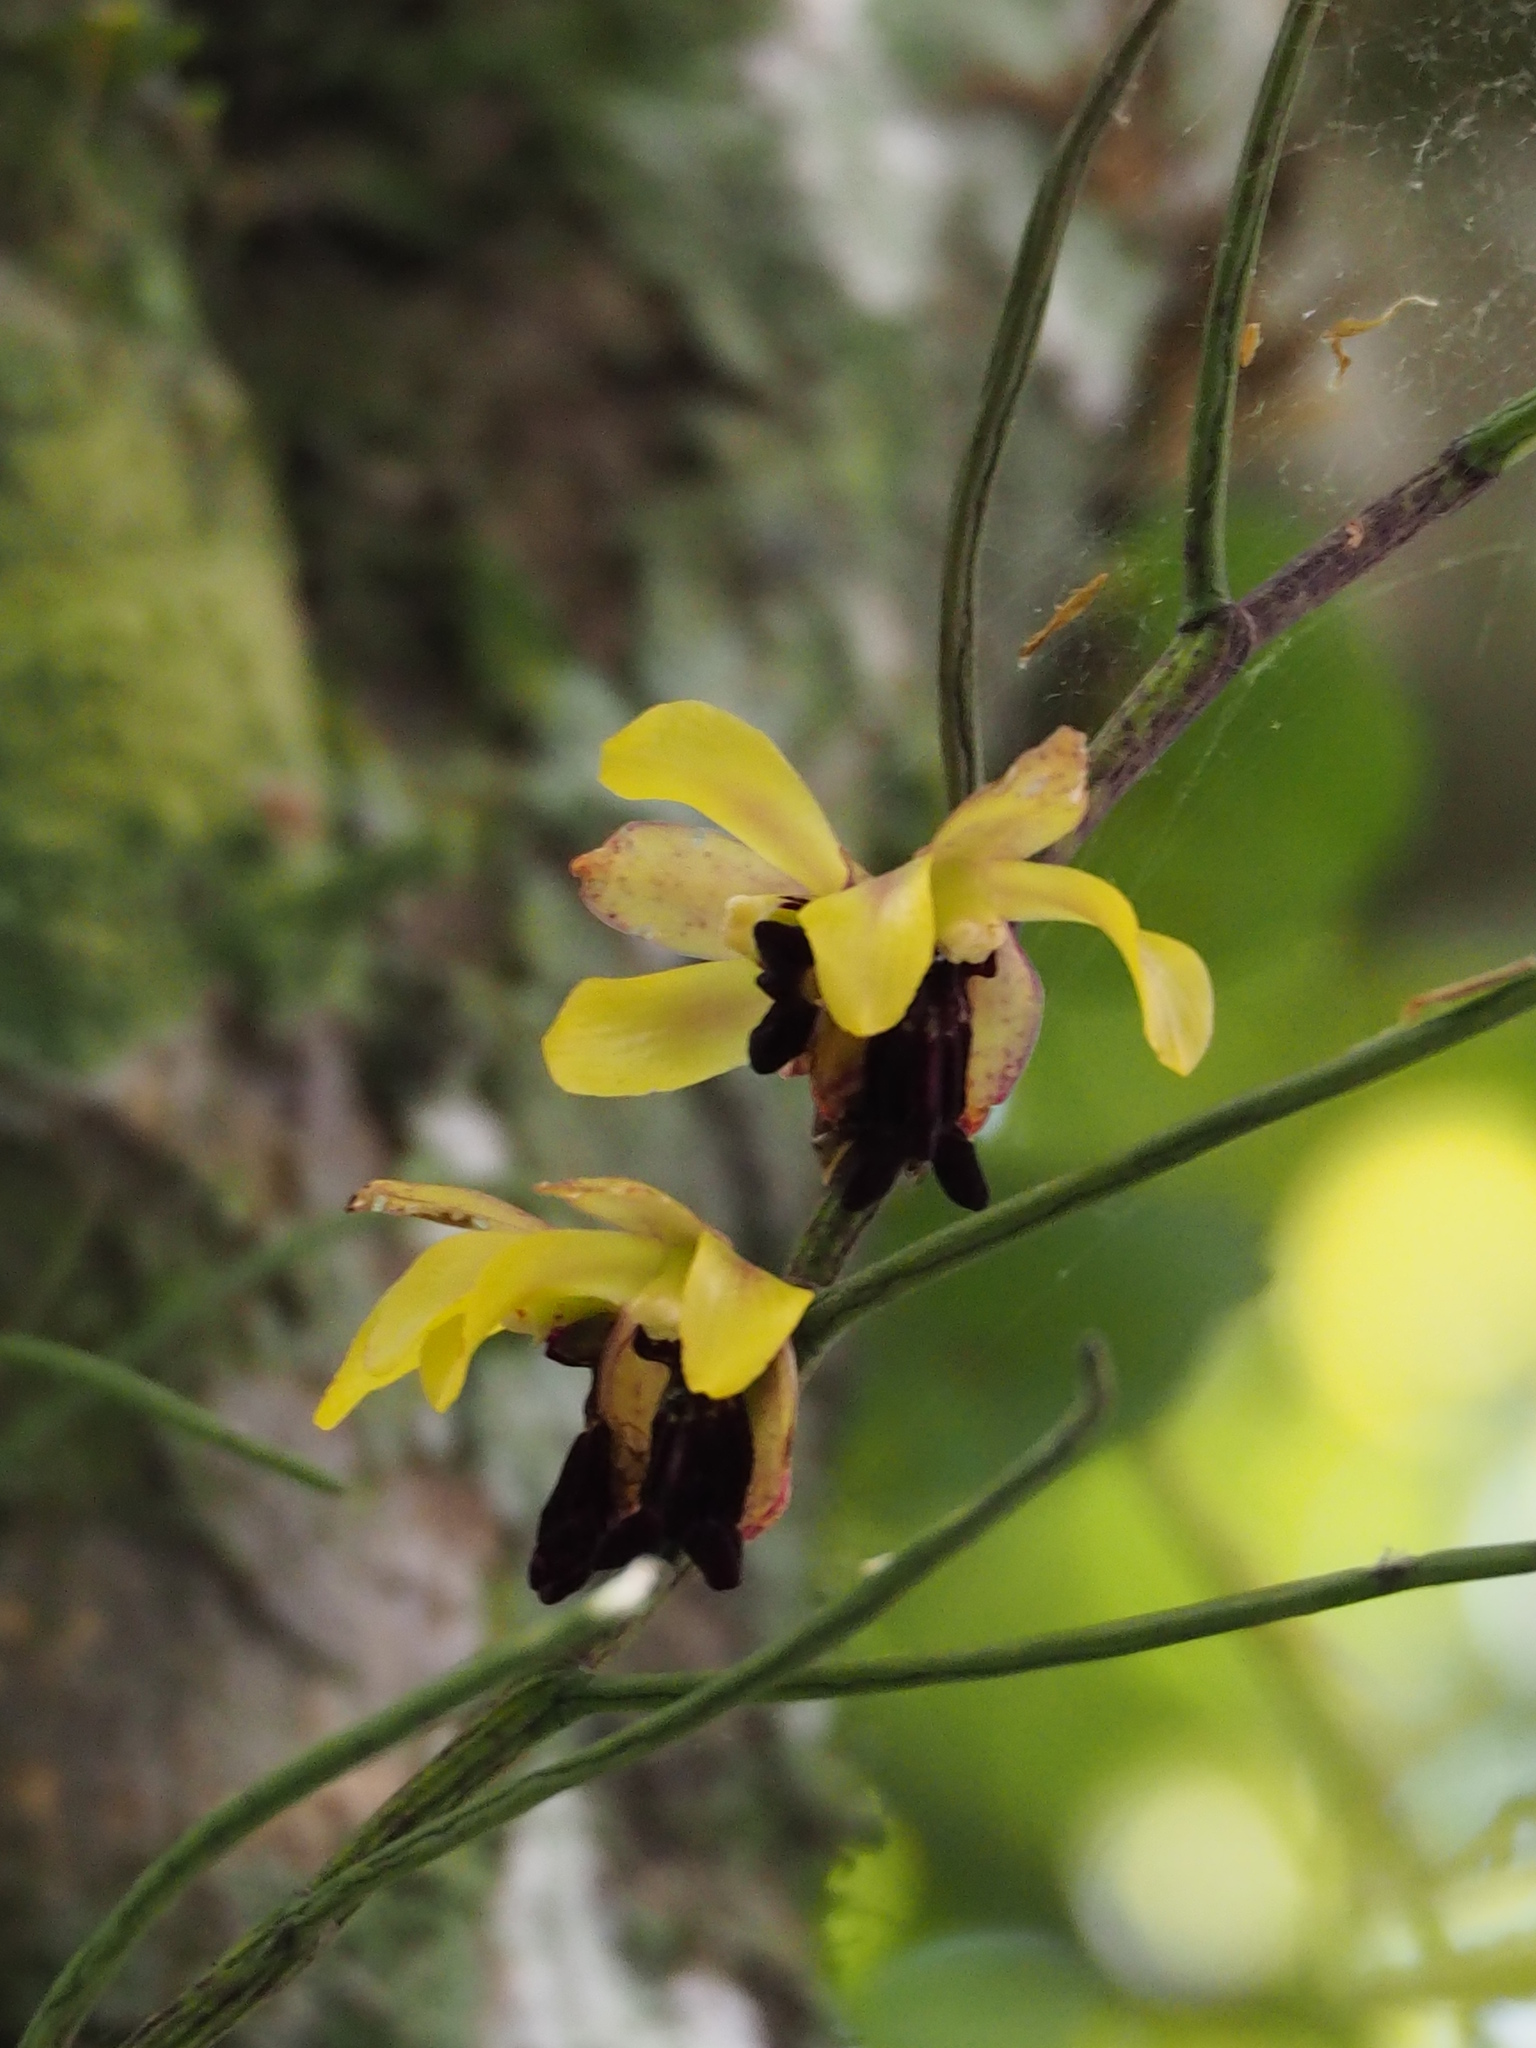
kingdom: Plantae
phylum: Tracheophyta
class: Liliopsida
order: Asparagales
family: Orchidaceae
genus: Luisia
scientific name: Luisia megasepala
